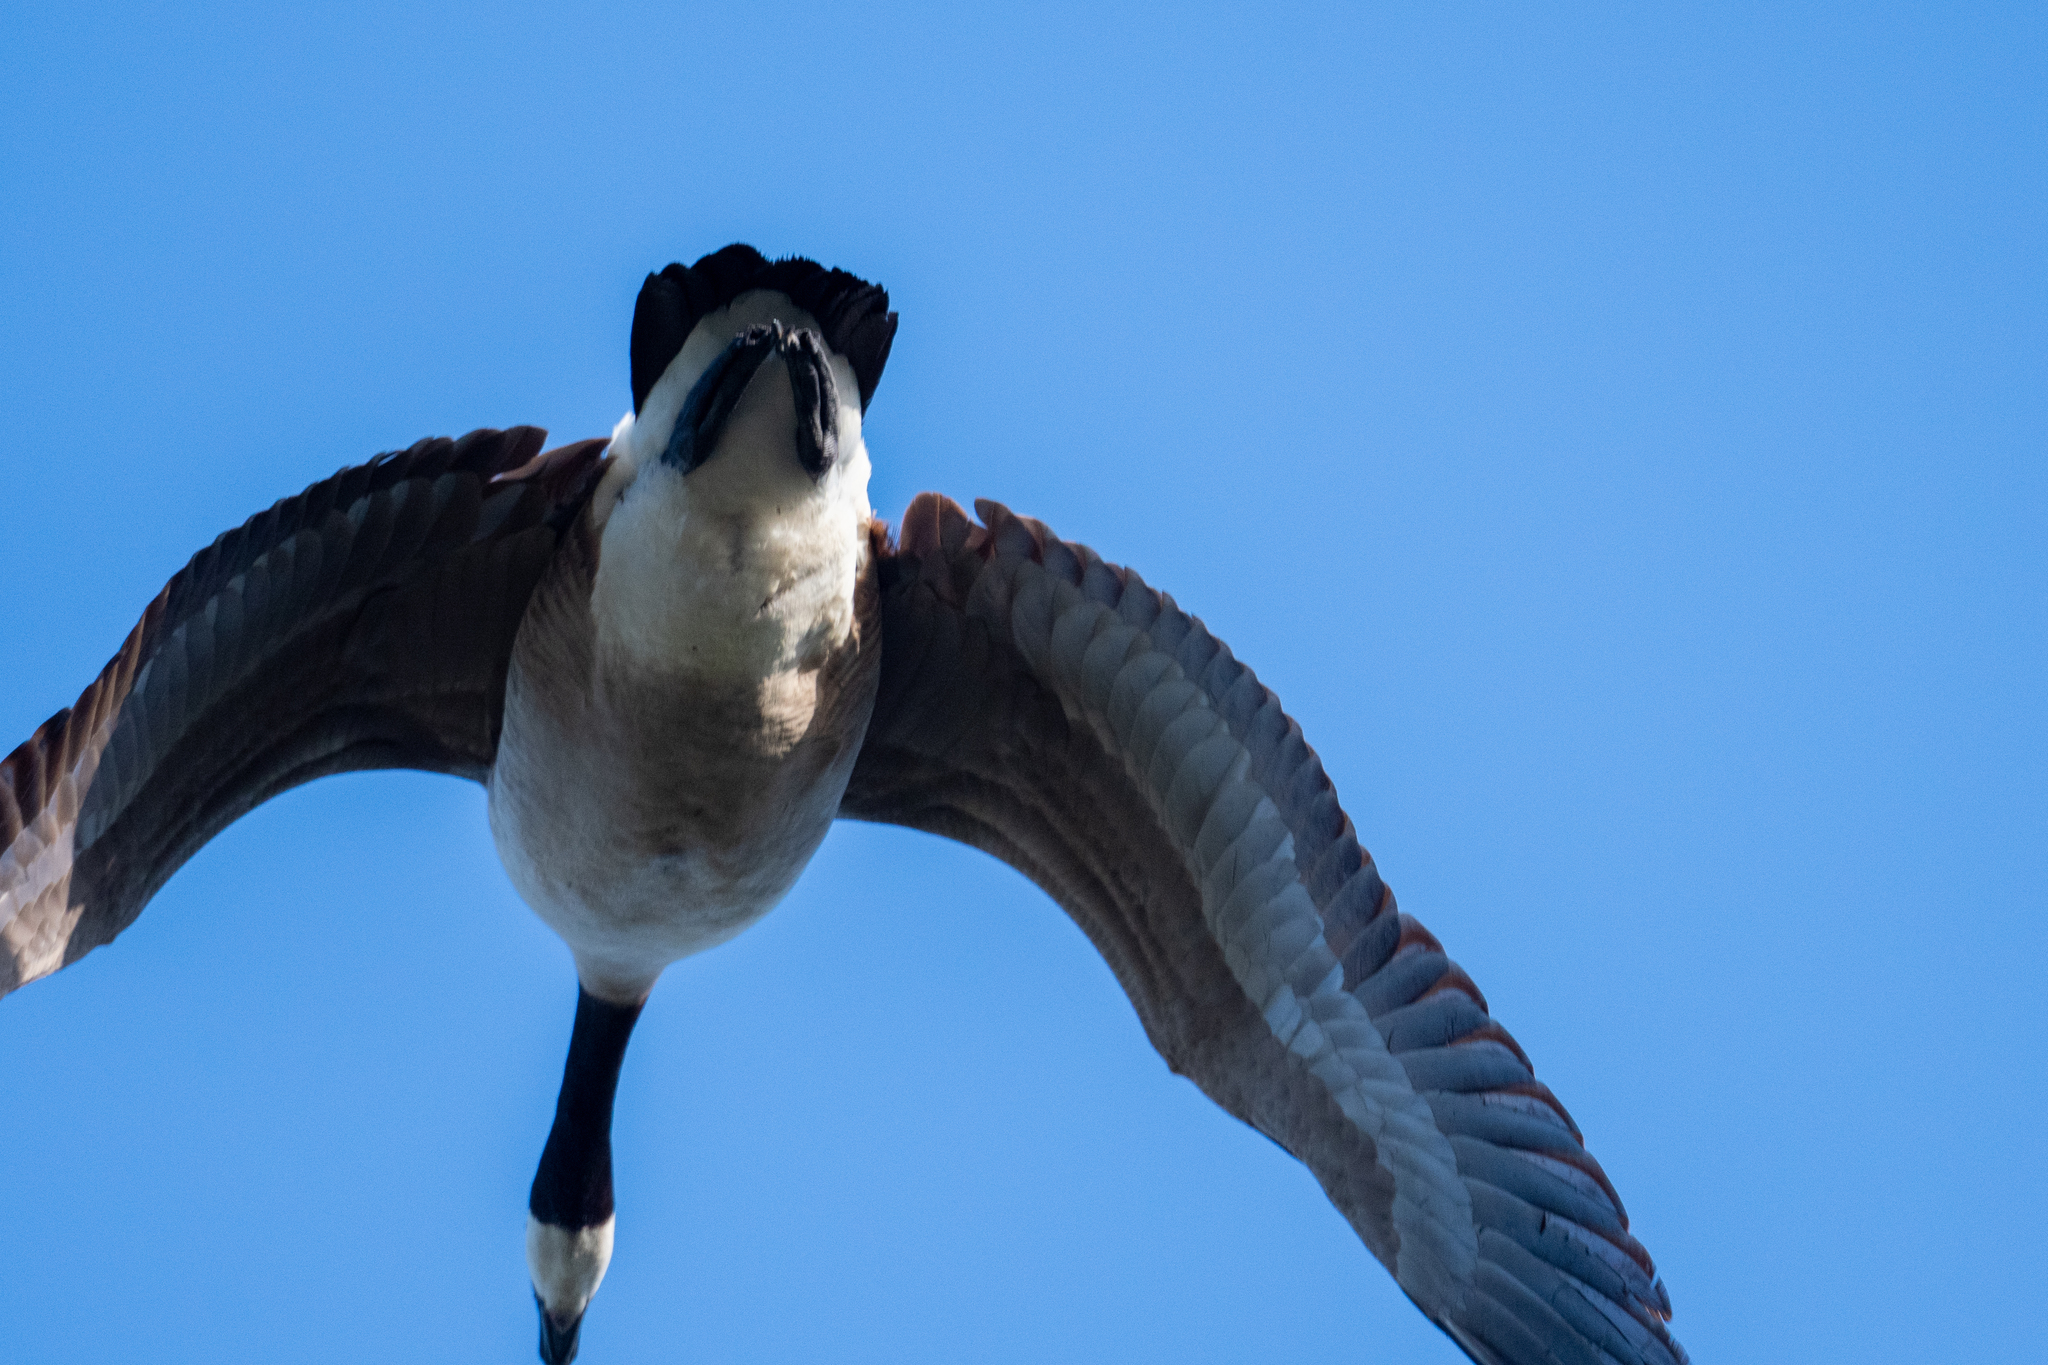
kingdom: Animalia
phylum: Chordata
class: Aves
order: Anseriformes
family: Anatidae
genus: Branta
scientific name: Branta canadensis
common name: Canada goose
